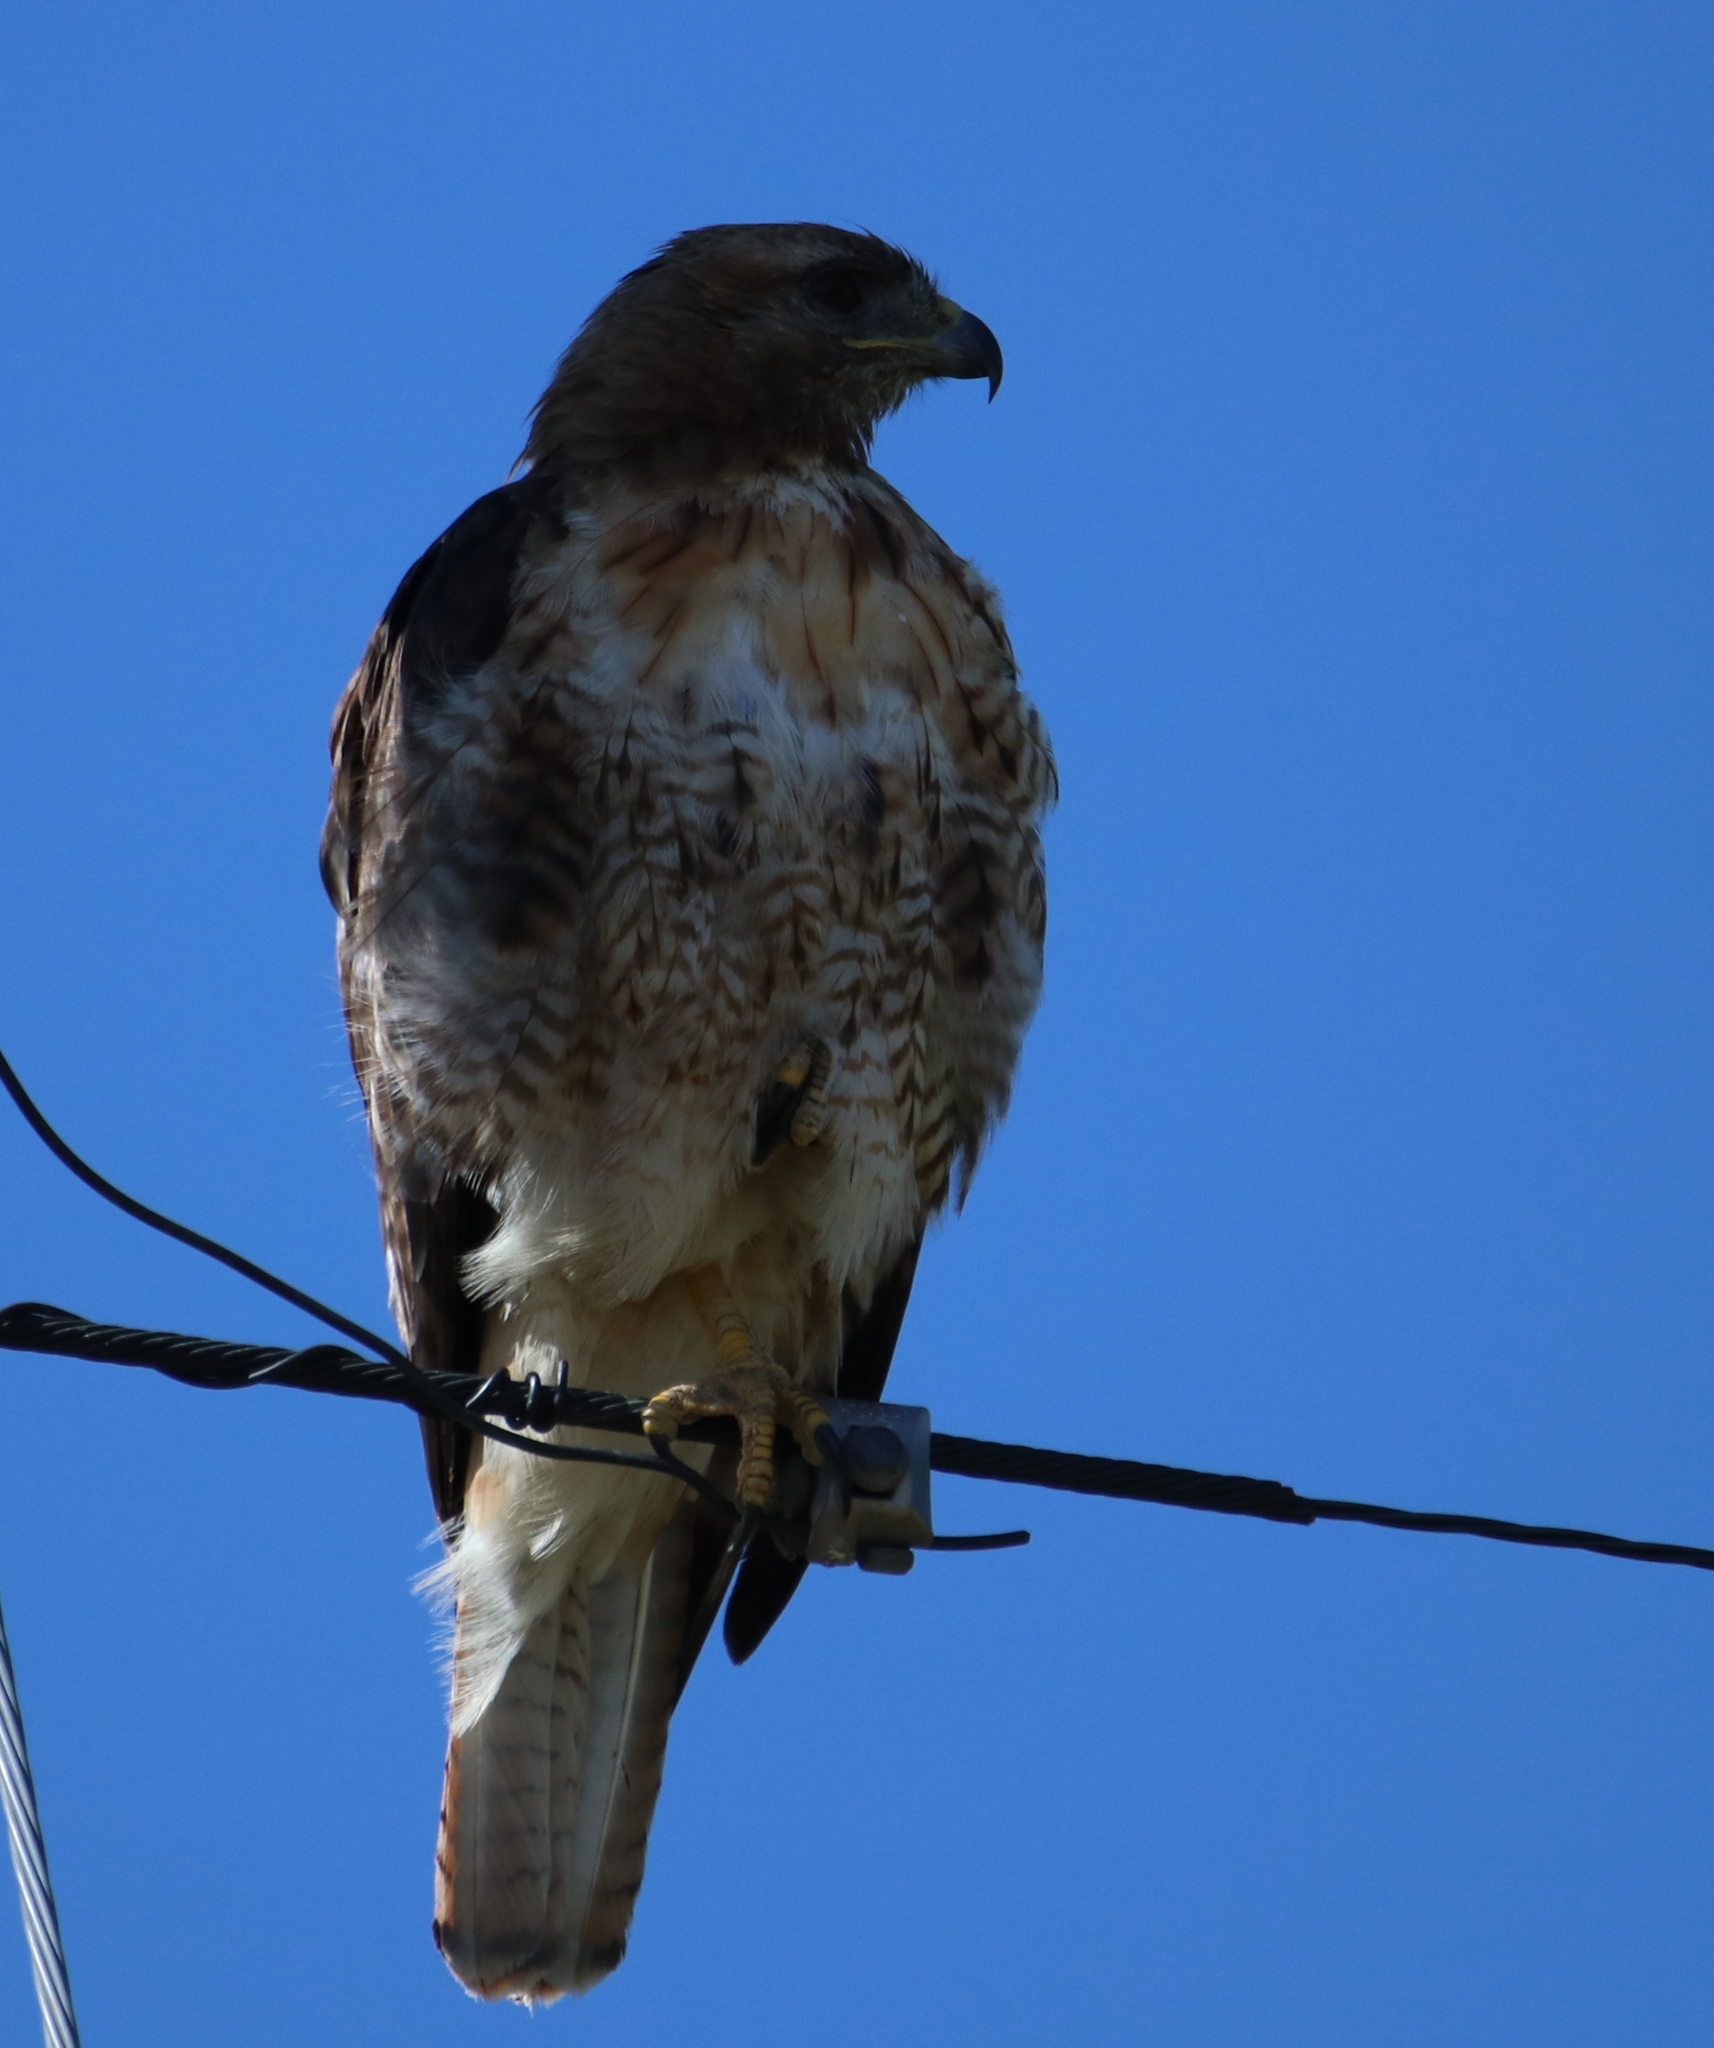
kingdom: Animalia
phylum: Chordata
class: Aves
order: Accipitriformes
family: Accipitridae
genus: Buteo
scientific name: Buteo jamaicensis
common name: Red-tailed hawk
